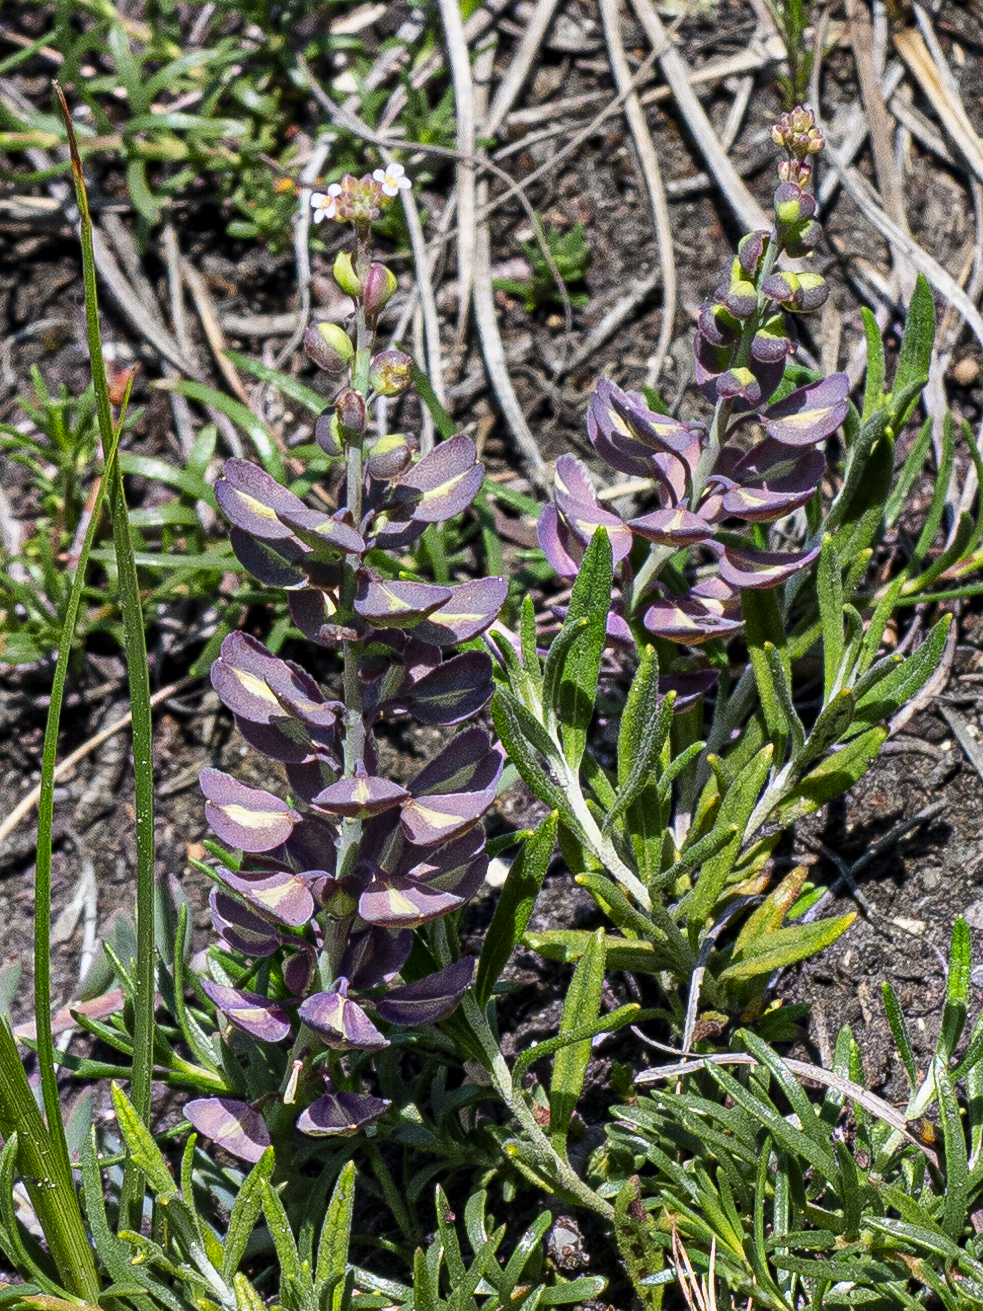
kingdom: Plantae
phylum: Tracheophyta
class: Magnoliopsida
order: Brassicales
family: Brassicaceae
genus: Aethionema
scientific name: Aethionema saxatile
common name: Burnt candytuft
